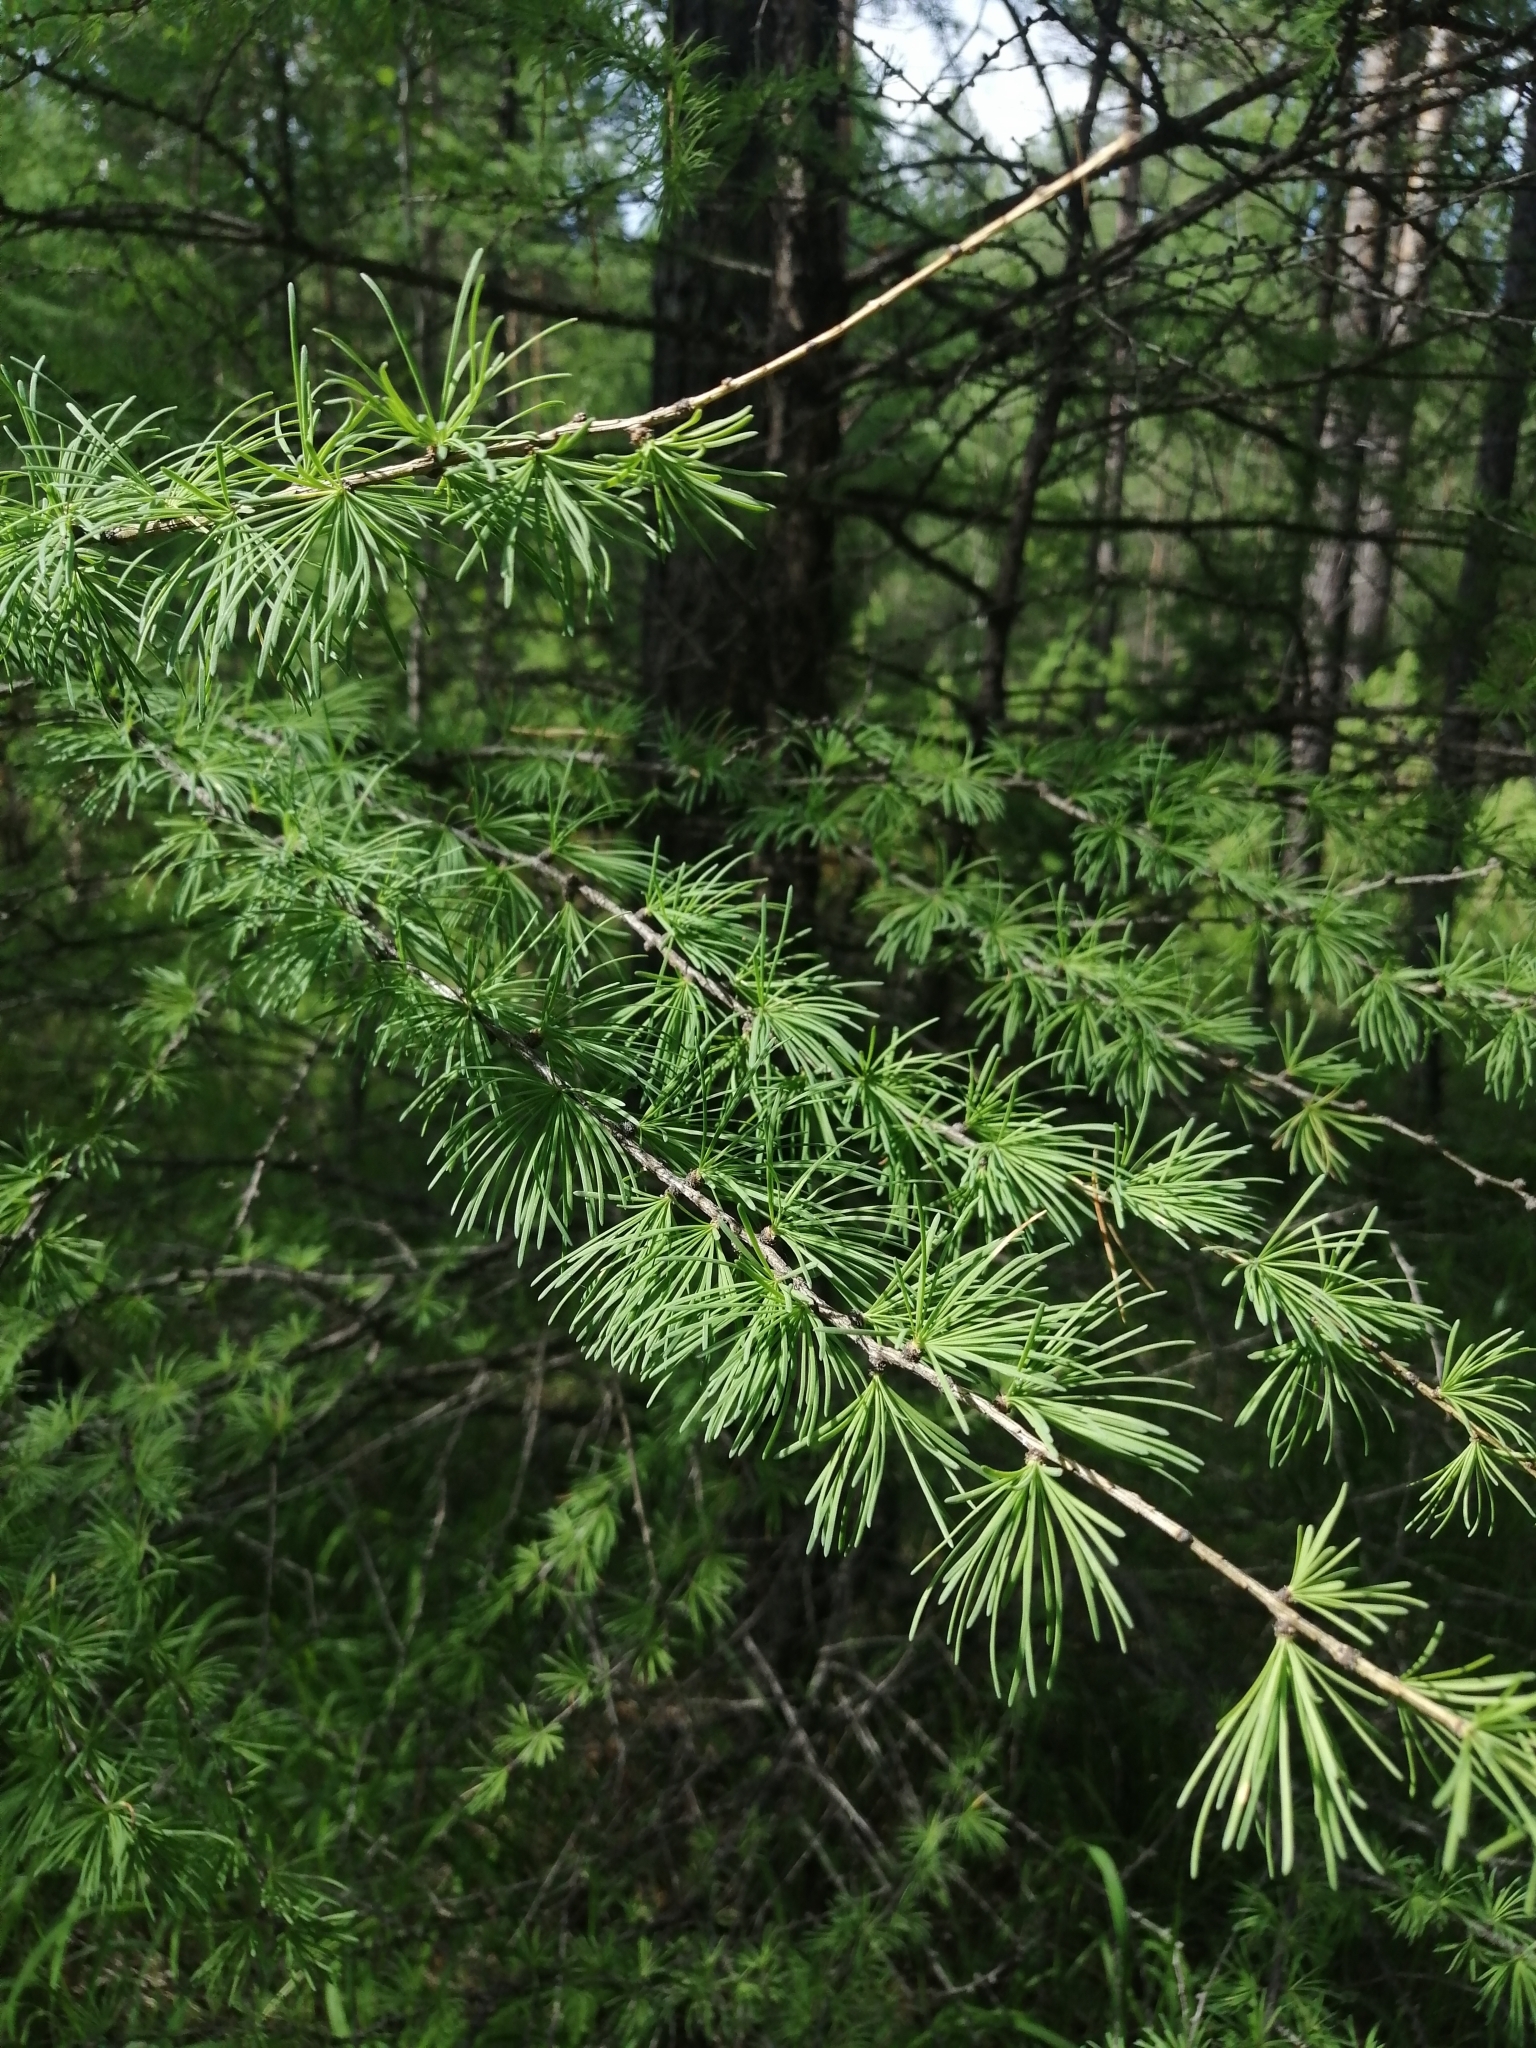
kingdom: Plantae
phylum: Tracheophyta
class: Pinopsida
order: Pinales
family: Pinaceae
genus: Larix
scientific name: Larix sibirica
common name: Siberian larch
